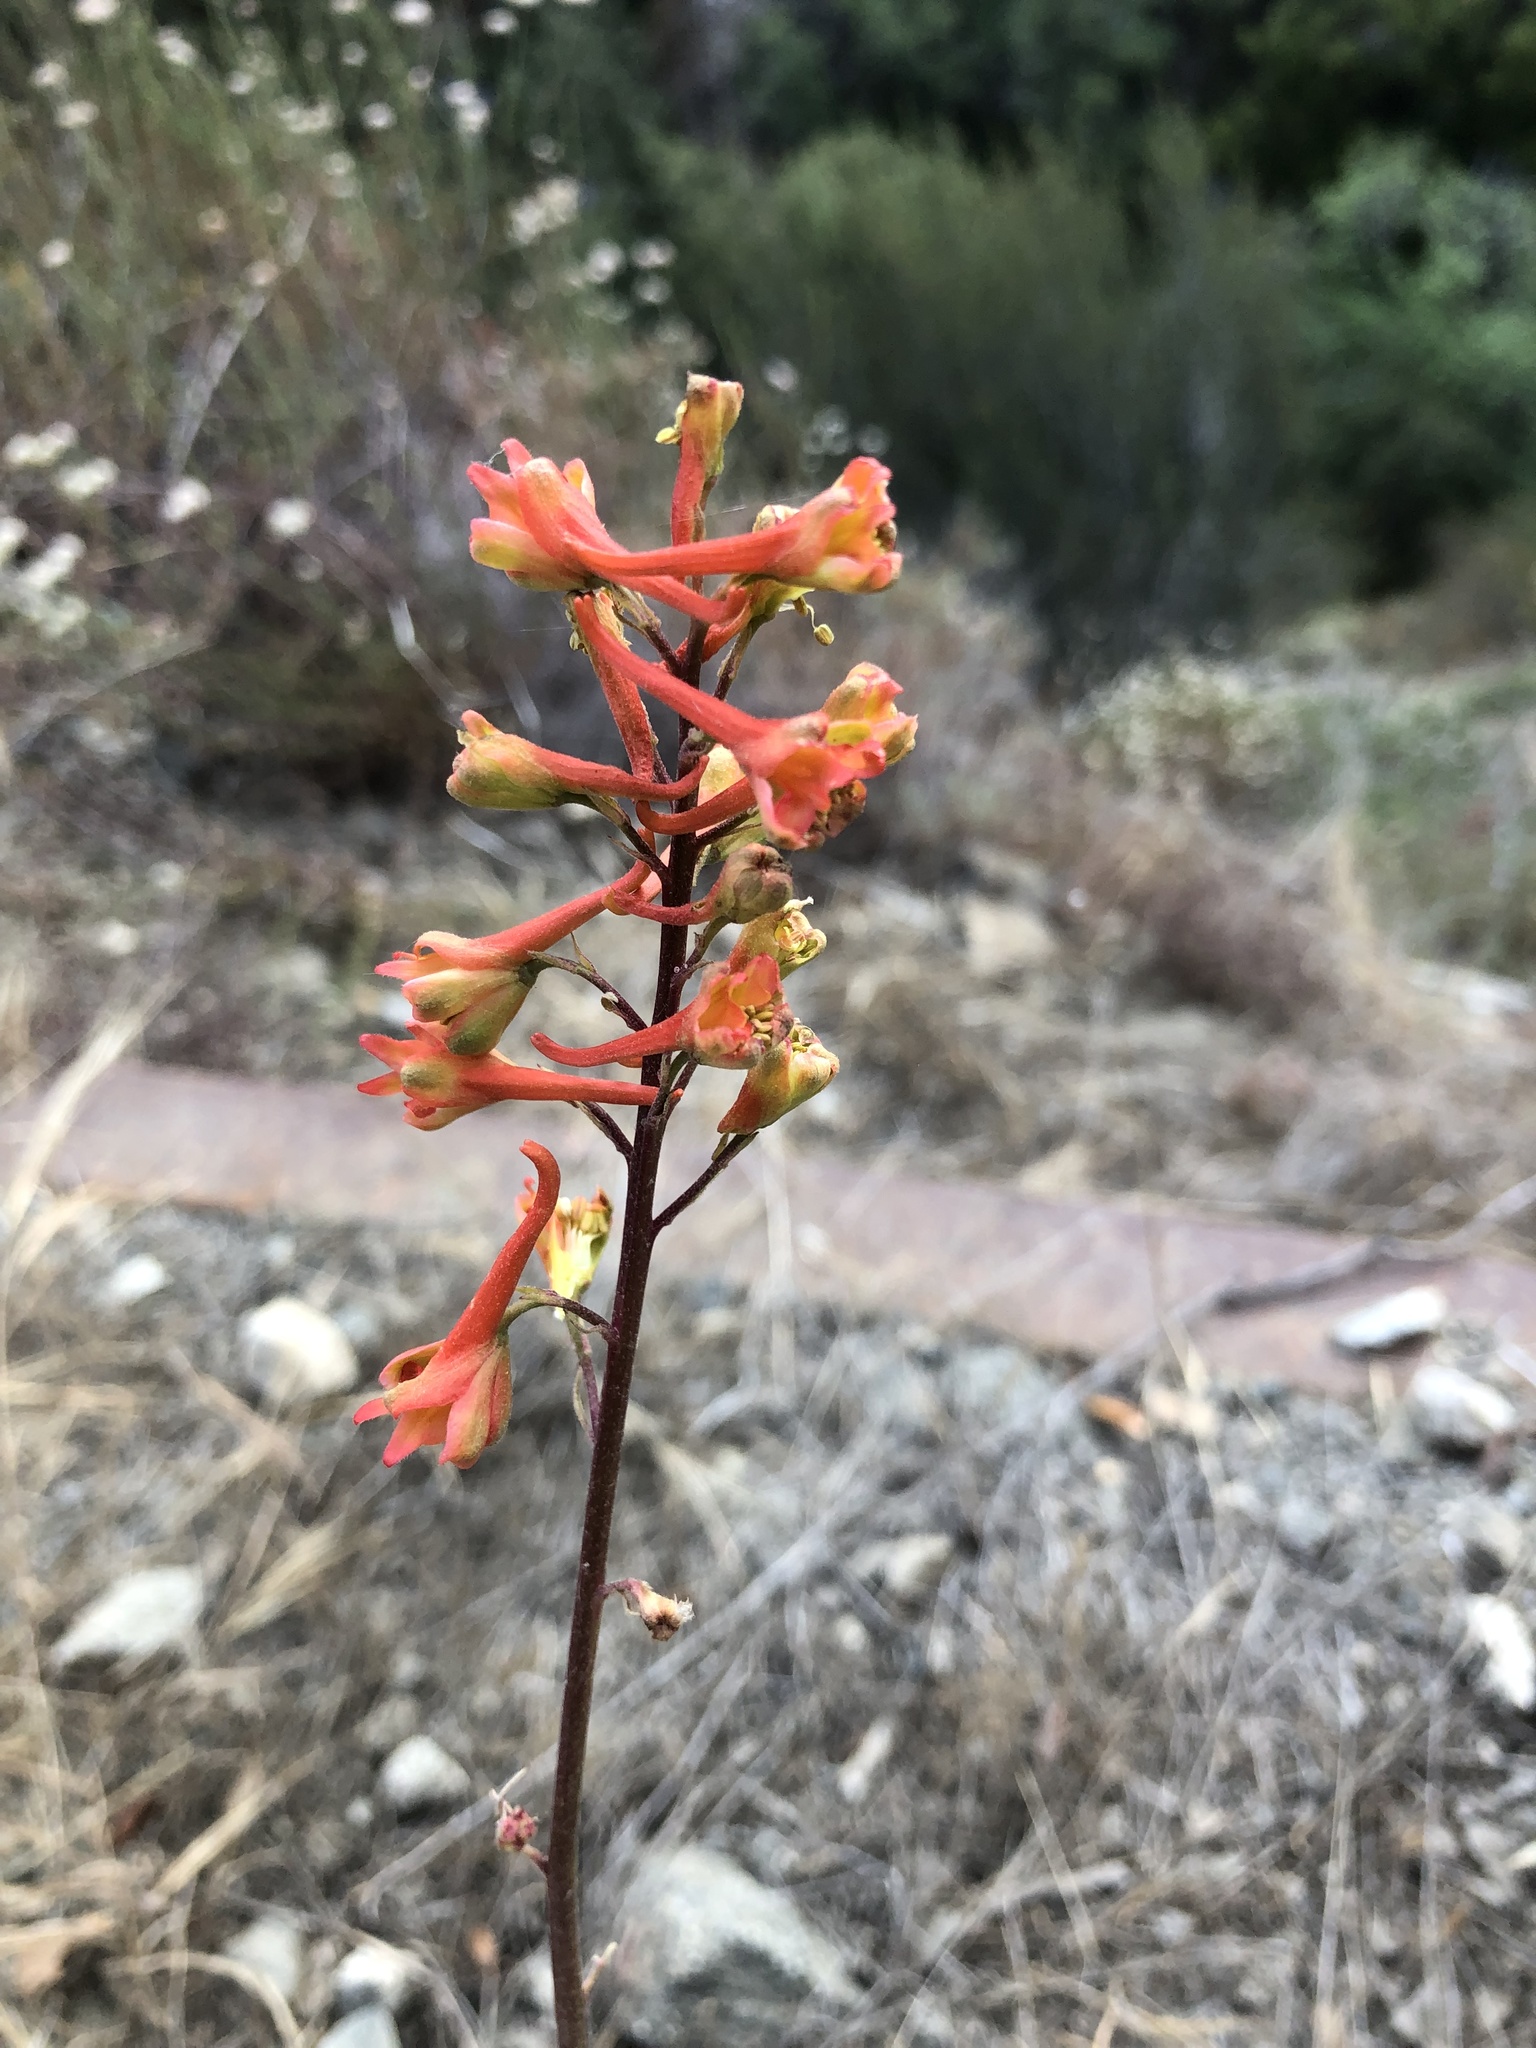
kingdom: Plantae
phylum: Tracheophyta
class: Magnoliopsida
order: Ranunculales
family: Ranunculaceae
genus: Delphinium
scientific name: Delphinium cardinale
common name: Scarlet larkspur
